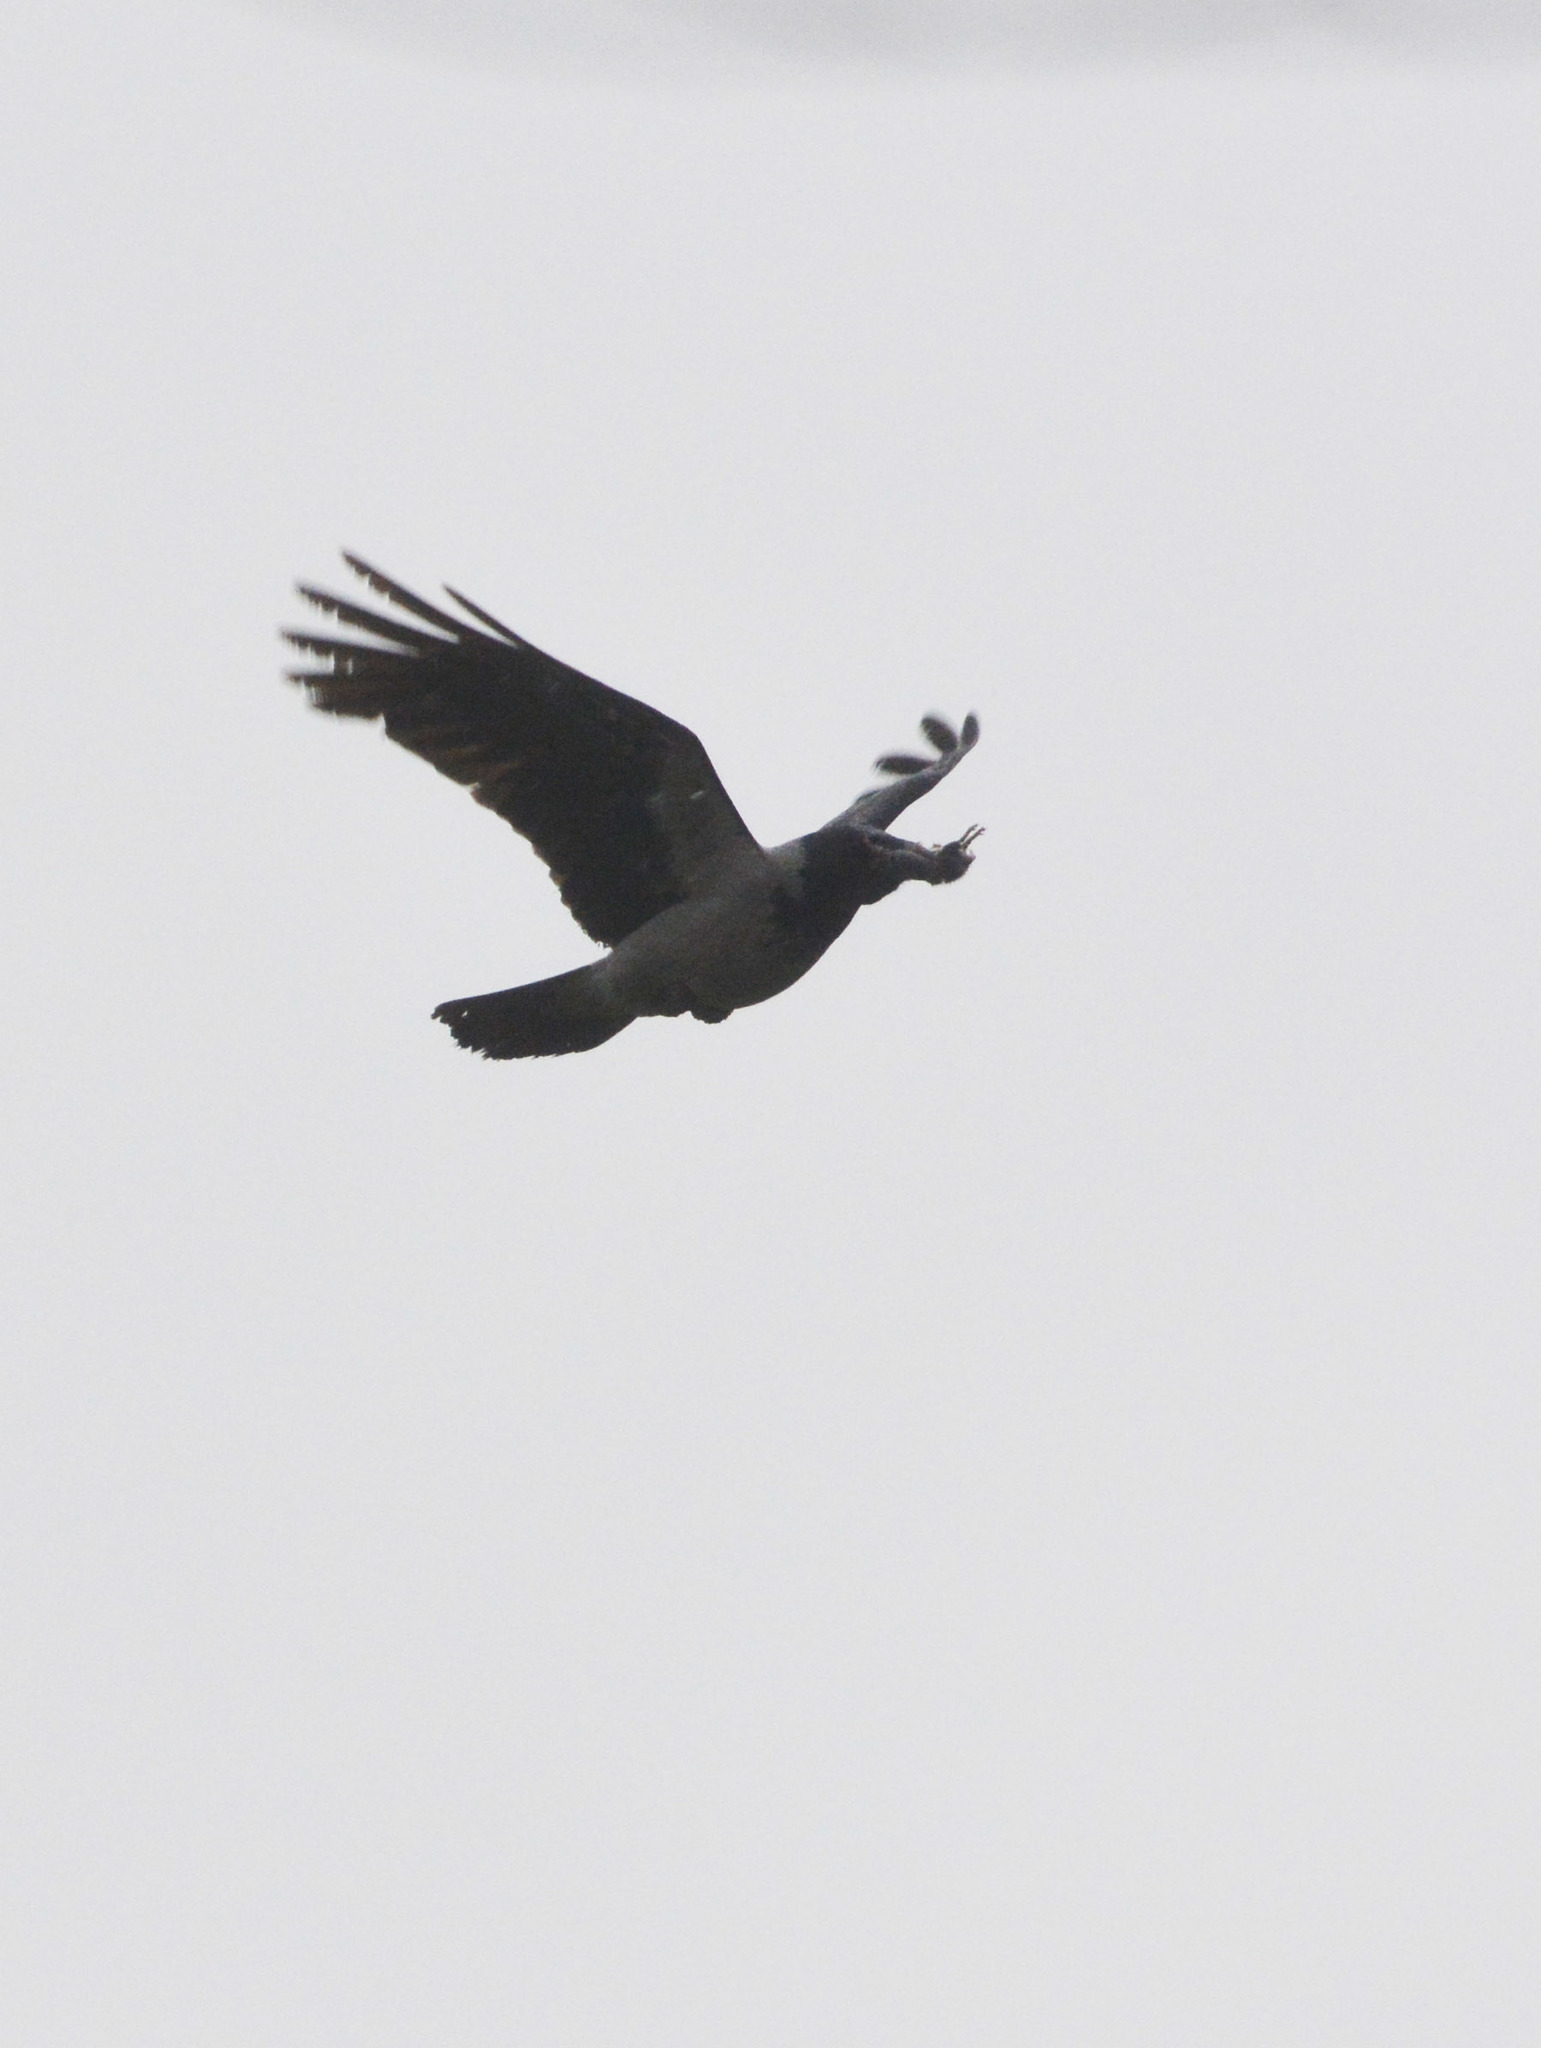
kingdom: Animalia
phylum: Chordata
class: Aves
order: Passeriformes
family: Corvidae
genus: Corvus
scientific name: Corvus cornix
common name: Hooded crow
